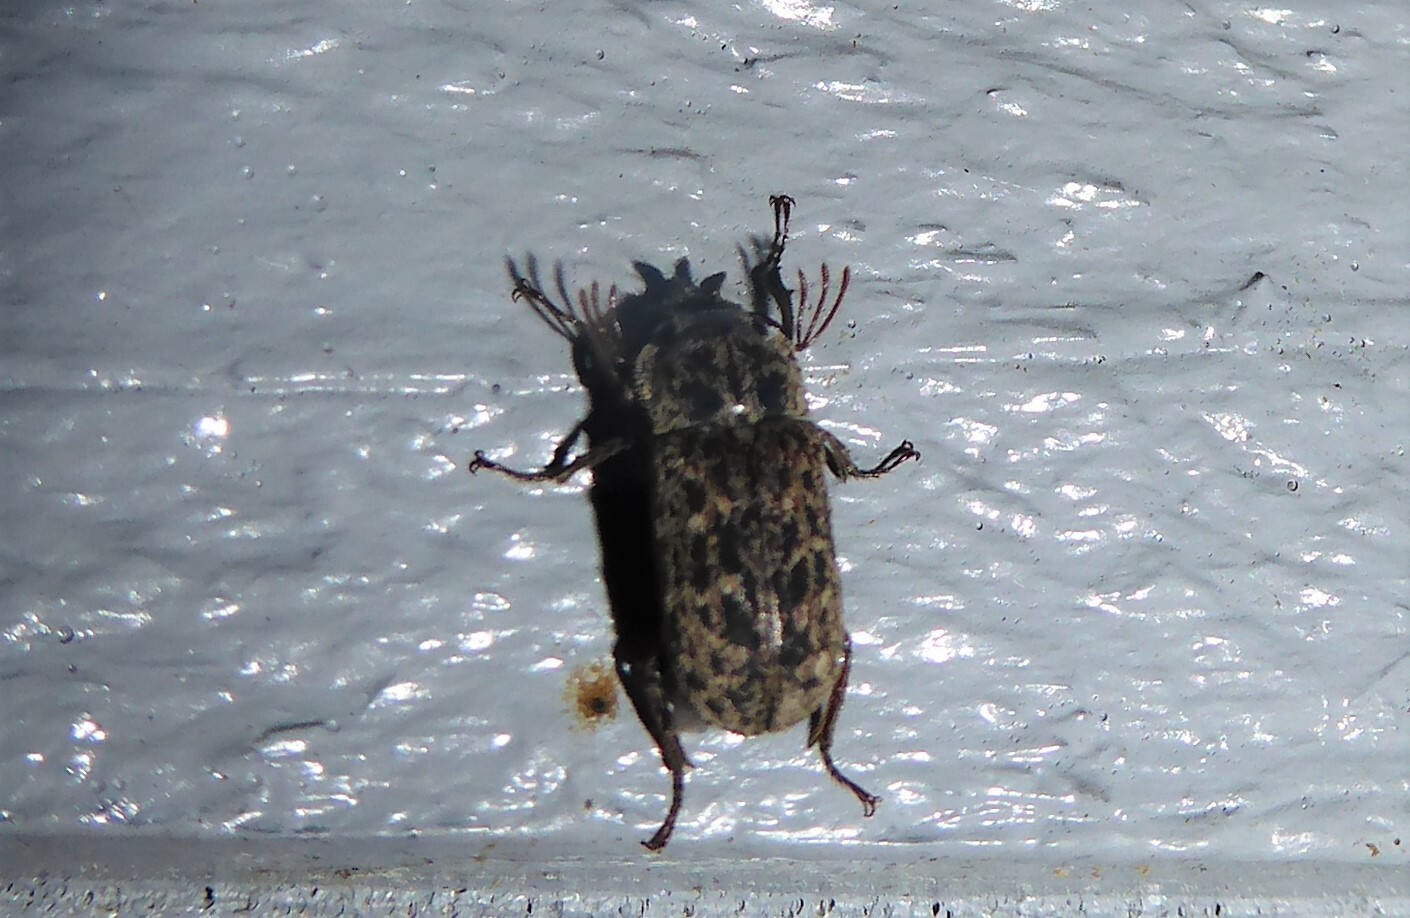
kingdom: Animalia
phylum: Arthropoda
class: Insecta
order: Coleoptera
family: Lucanidae
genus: Mitophyllus
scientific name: Mitophyllus irroratus
